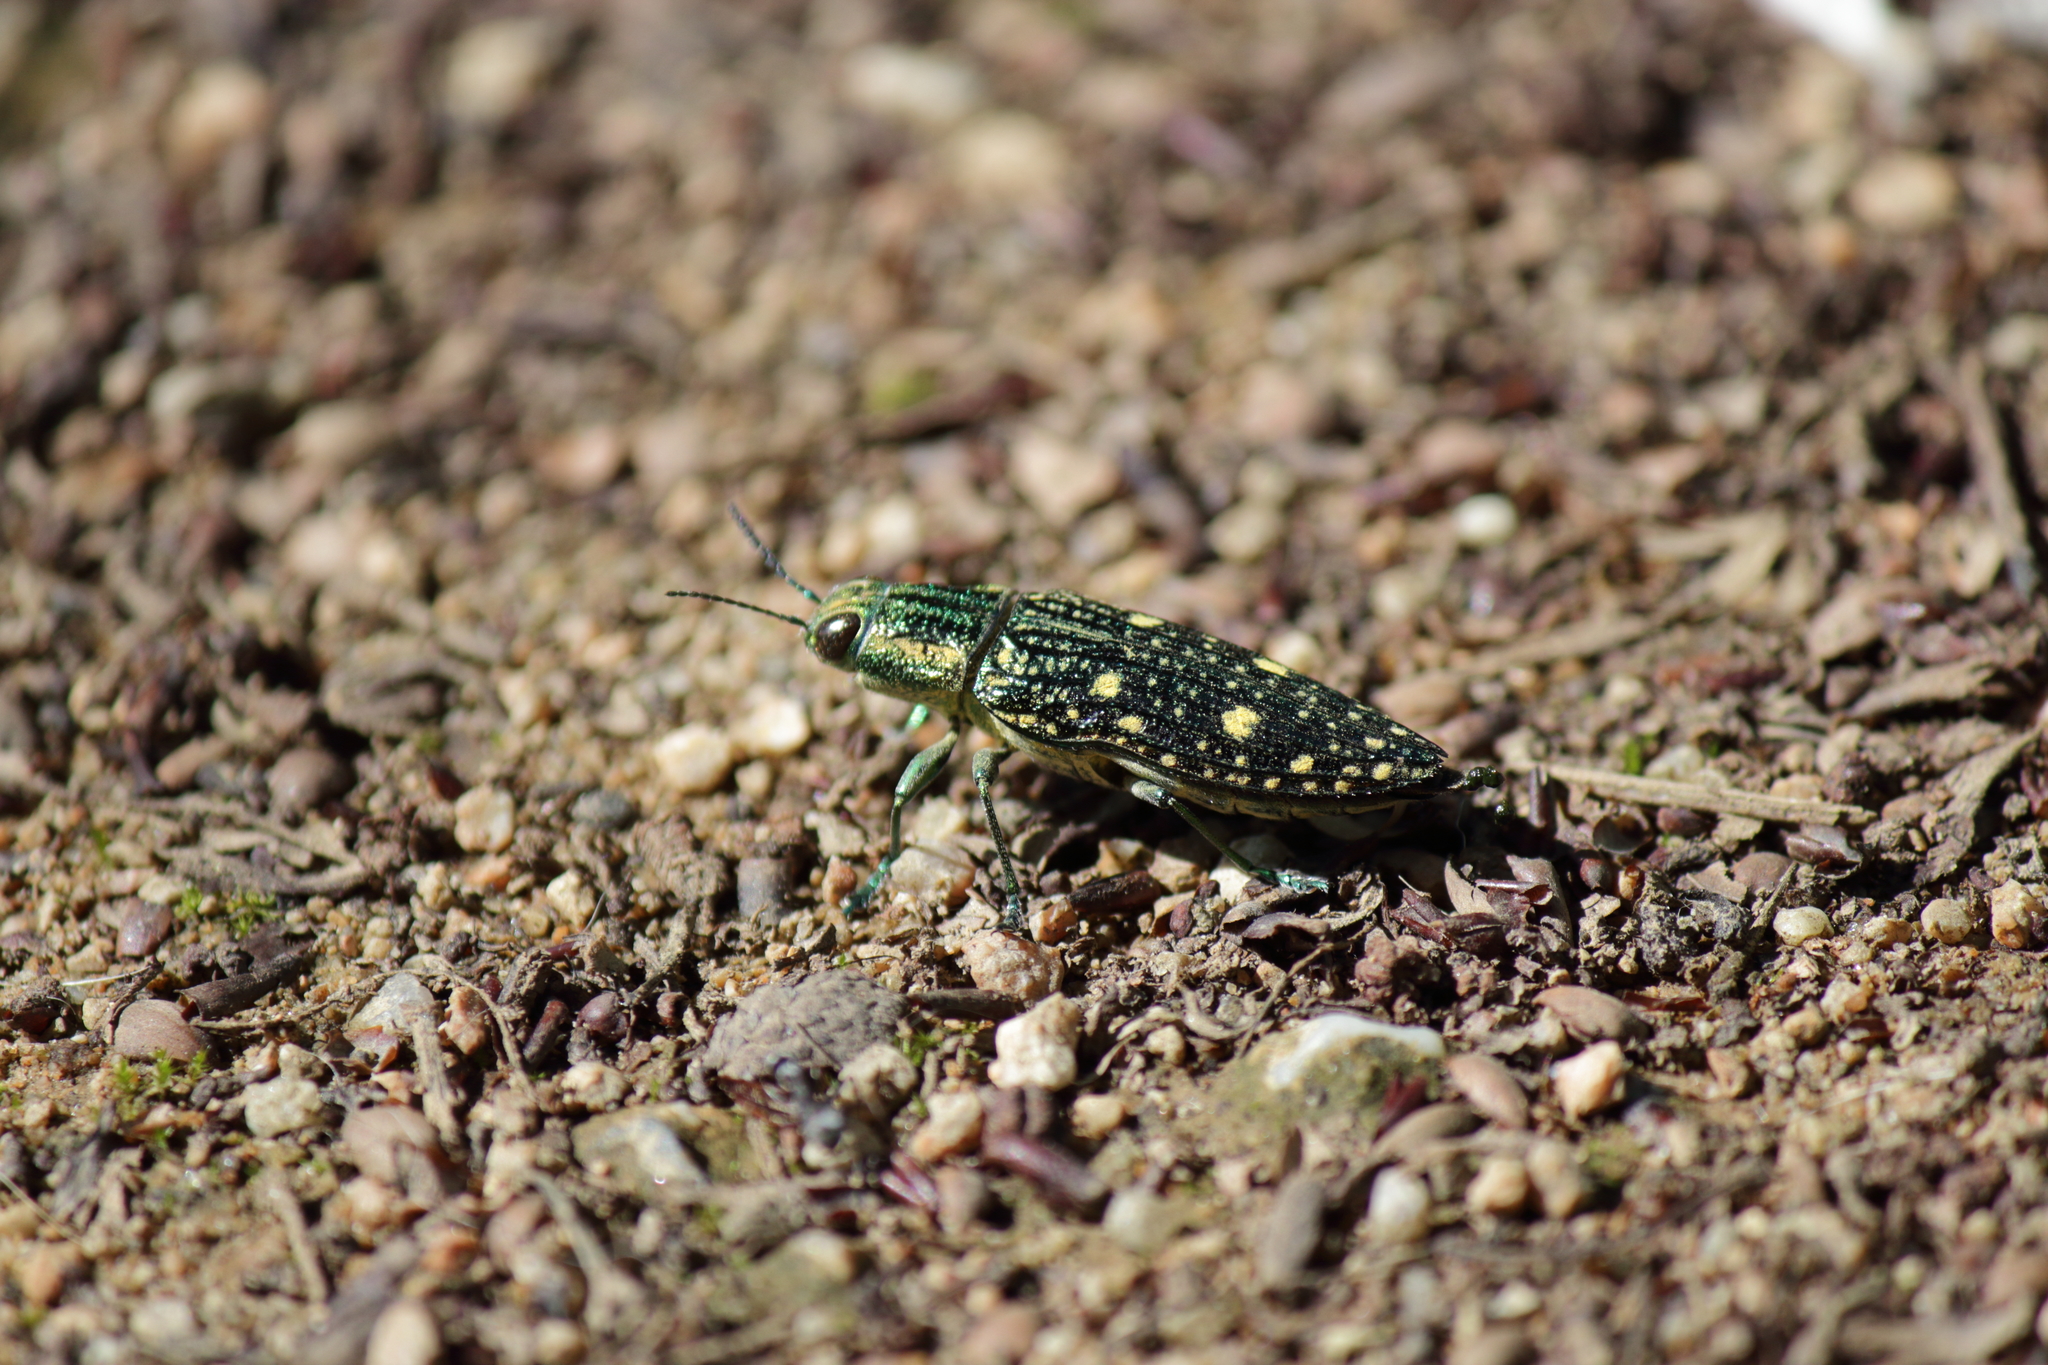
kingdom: Animalia
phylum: Arthropoda
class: Insecta
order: Coleoptera
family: Buprestidae
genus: Nipponobuprestis
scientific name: Nipponobuprestis amabilis
